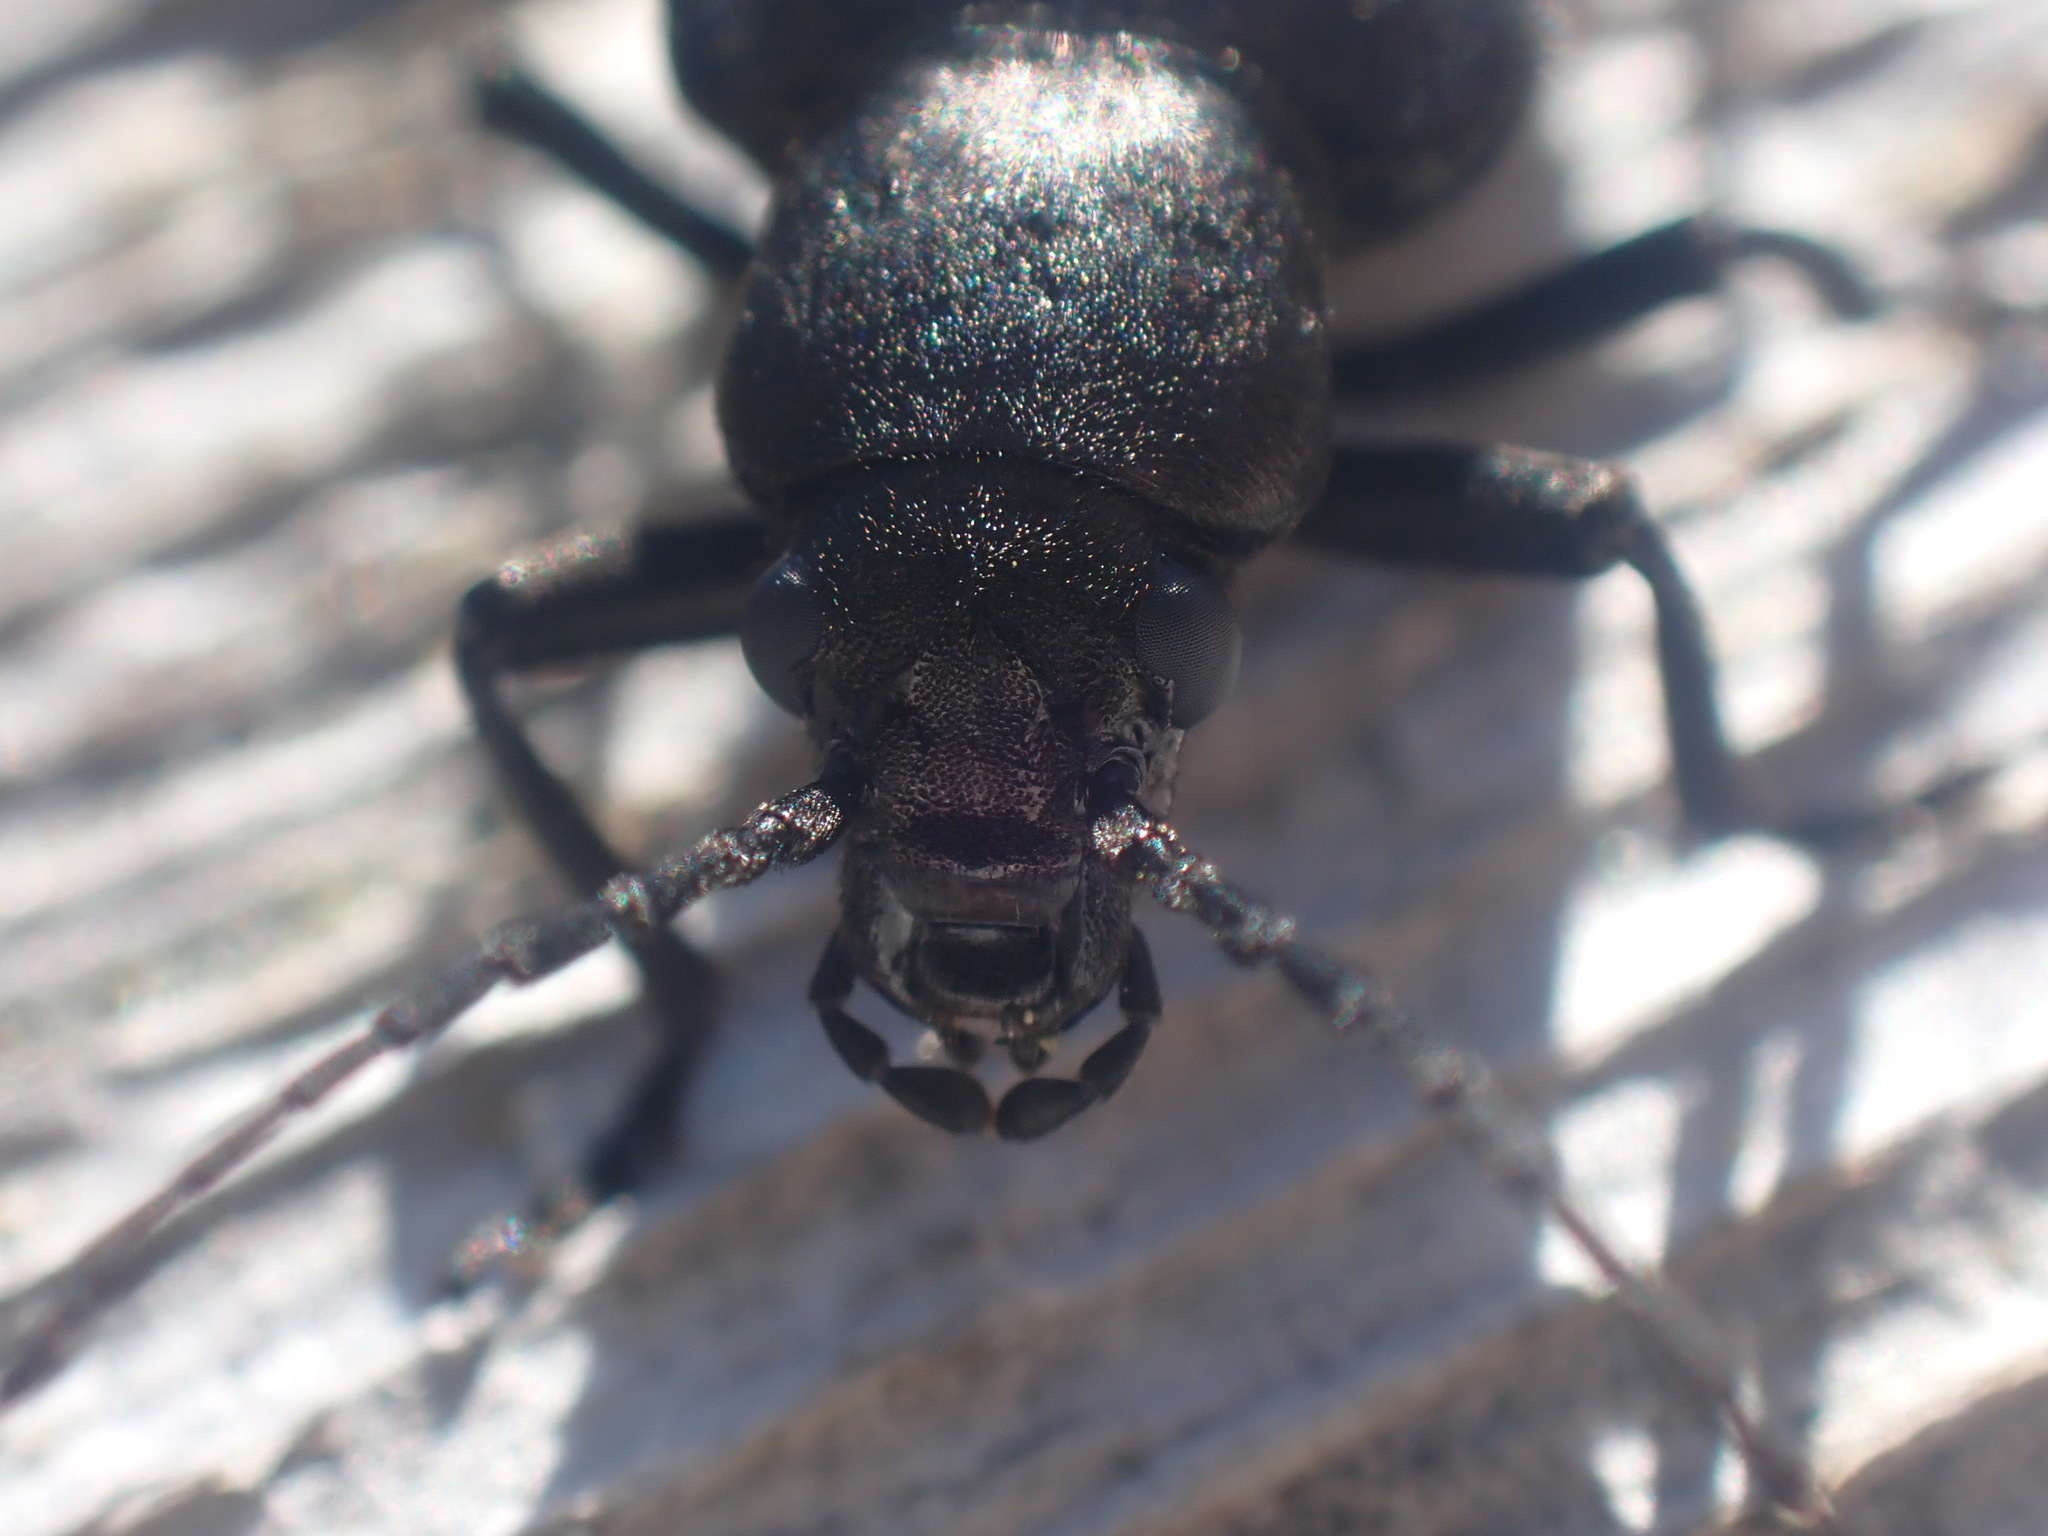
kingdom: Animalia
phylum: Arthropoda
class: Insecta
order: Coleoptera
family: Oedemeridae
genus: Ditylus
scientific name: Ditylus quadricollis
